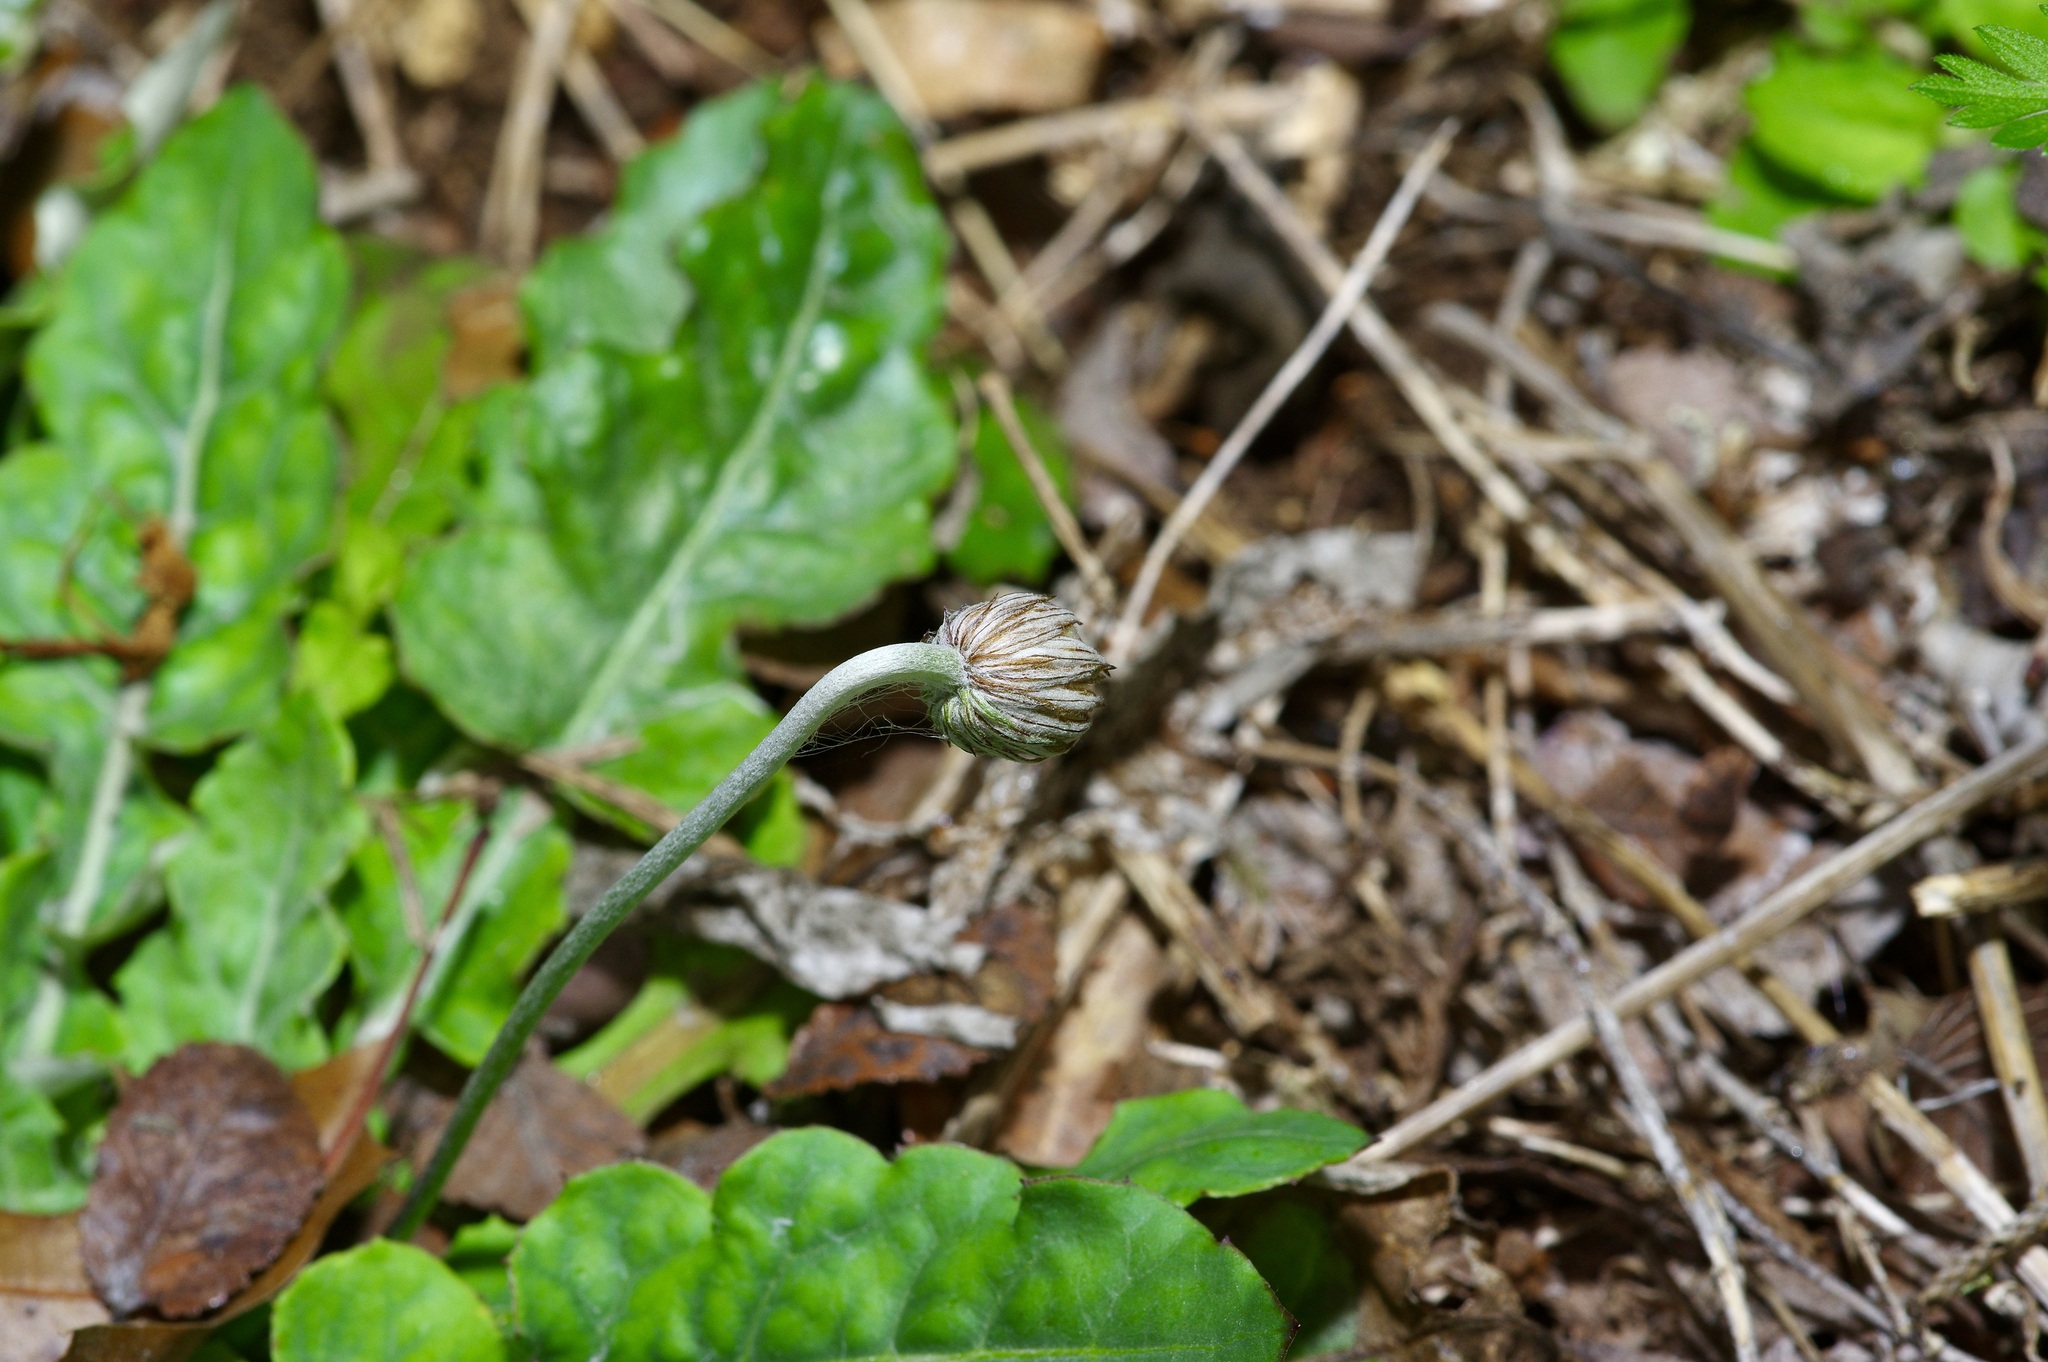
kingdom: Plantae
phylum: Tracheophyta
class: Magnoliopsida
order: Asterales
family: Asteraceae
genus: Chaptalia
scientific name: Chaptalia texana
